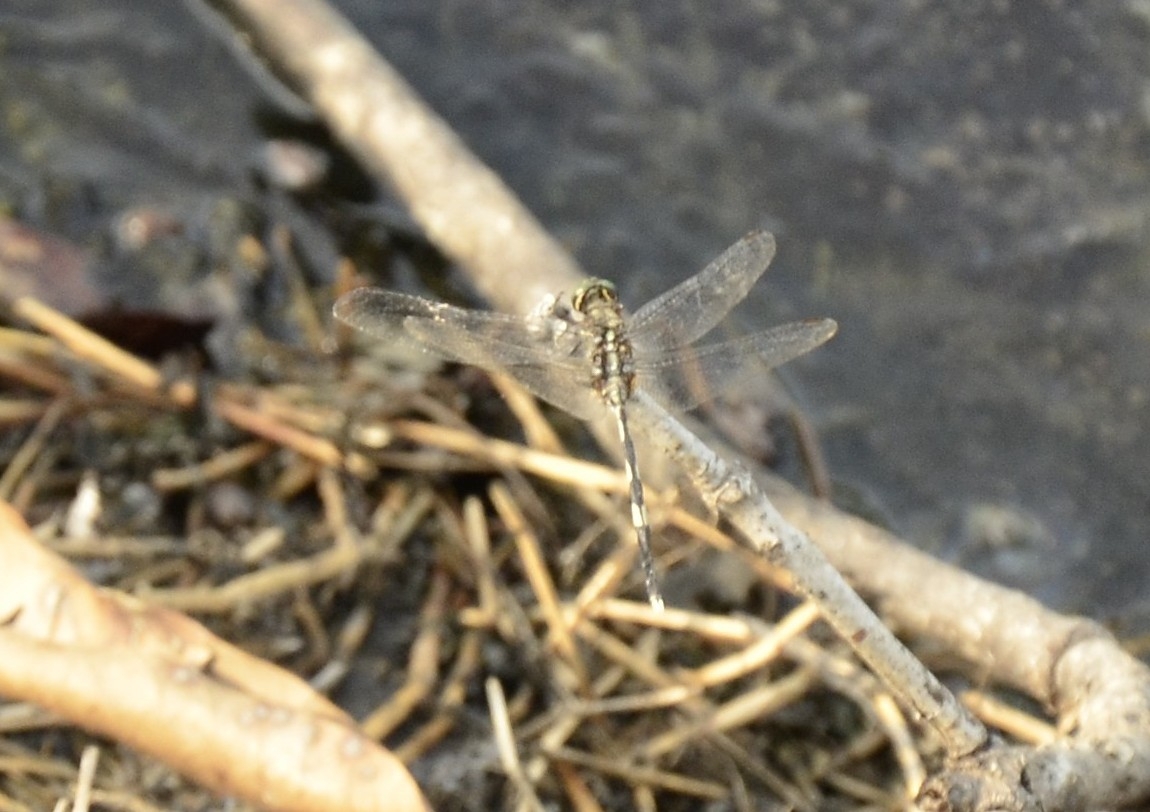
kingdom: Animalia
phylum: Arthropoda
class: Insecta
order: Odonata
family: Libellulidae
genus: Orthetrum
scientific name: Orthetrum sabina
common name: Slender skimmer
